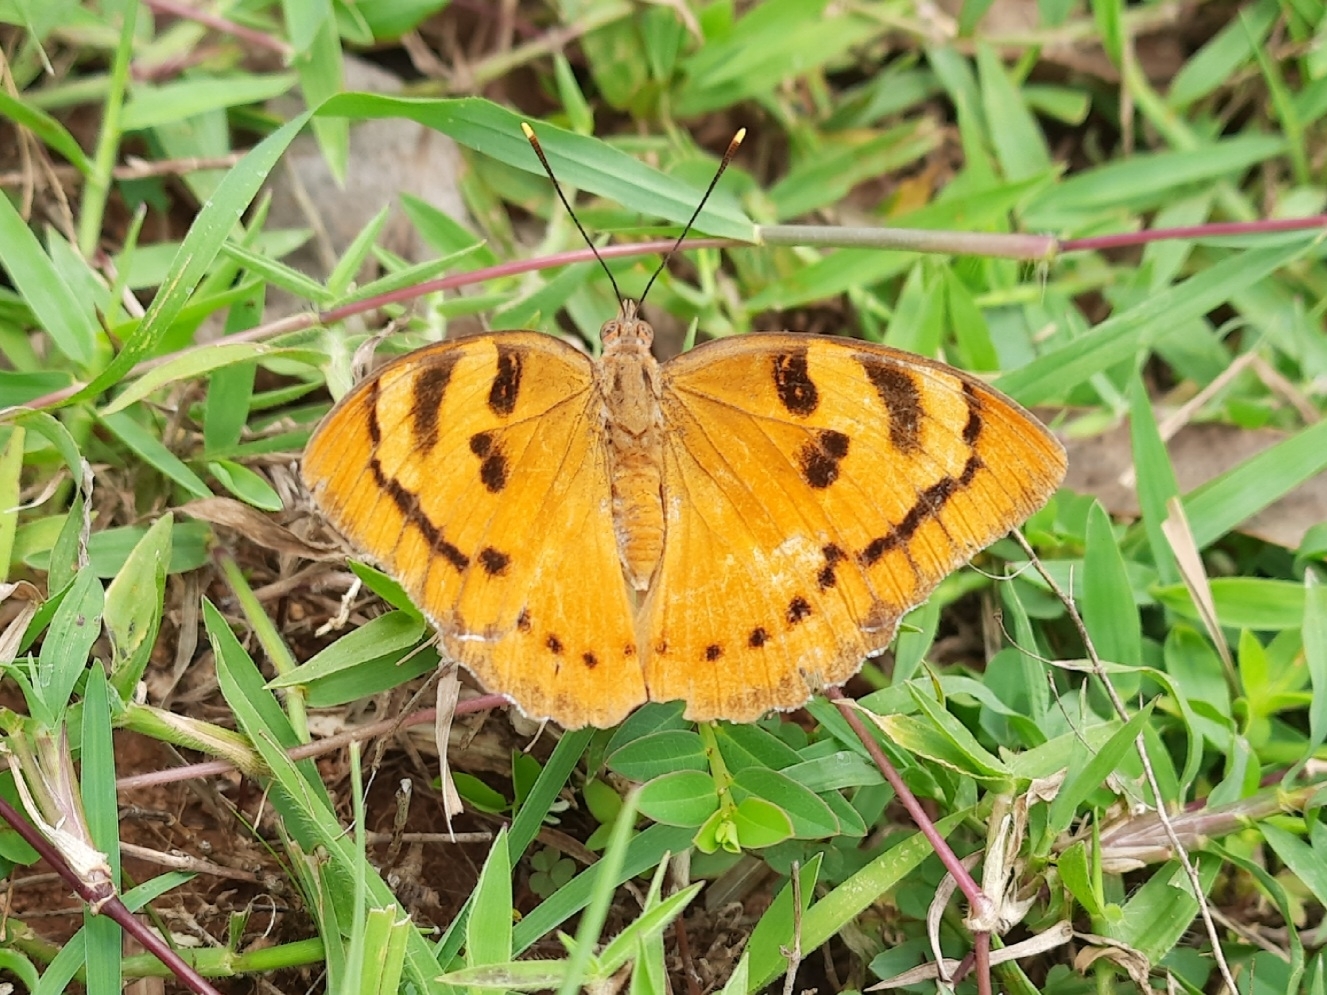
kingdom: Animalia
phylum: Arthropoda
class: Insecta
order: Lepidoptera
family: Nymphalidae
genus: Euthalia
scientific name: Euthalia nais
